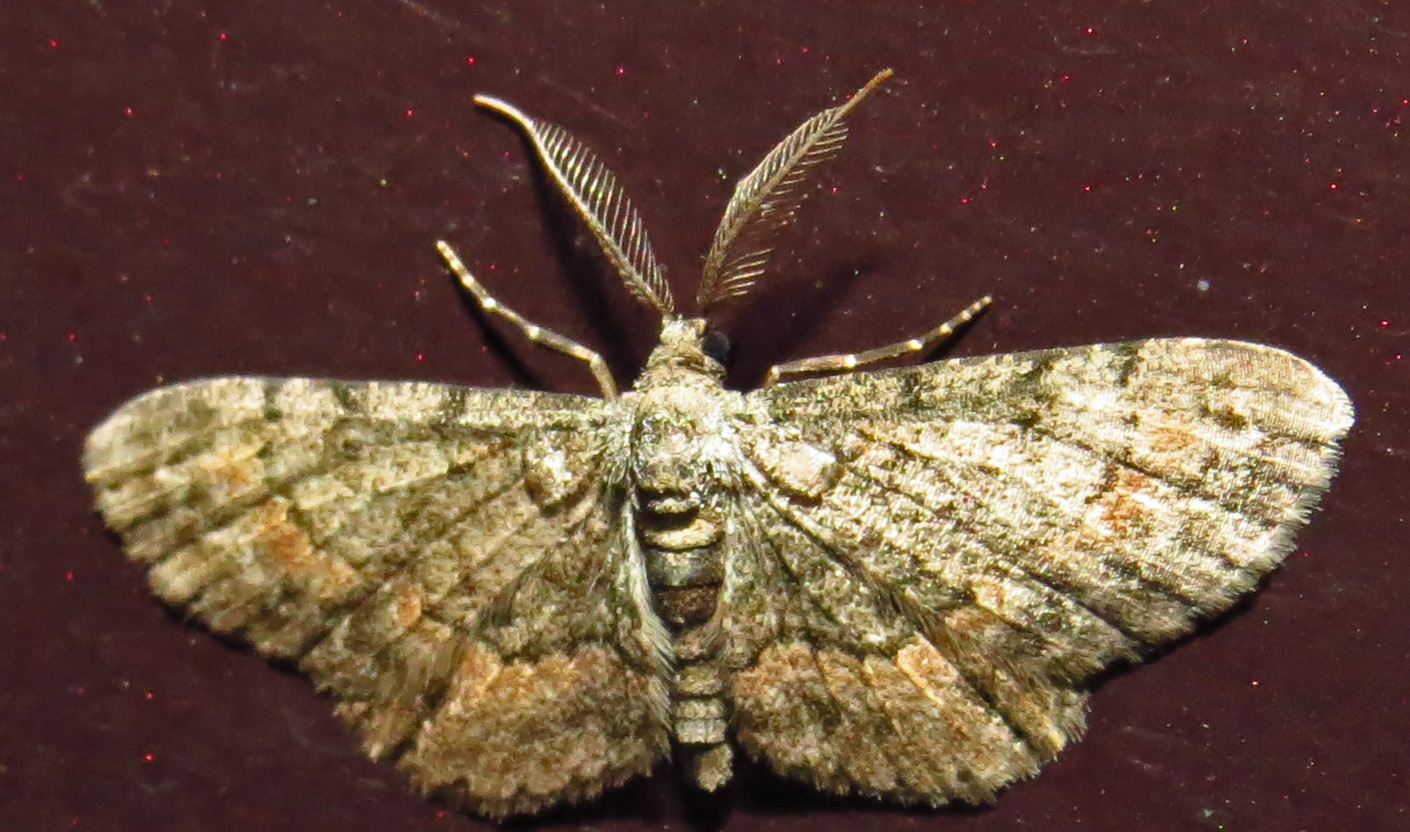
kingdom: Animalia
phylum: Arthropoda
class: Insecta
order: Lepidoptera
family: Geometridae
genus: Glenoides
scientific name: Glenoides texanaria
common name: Texas gray
